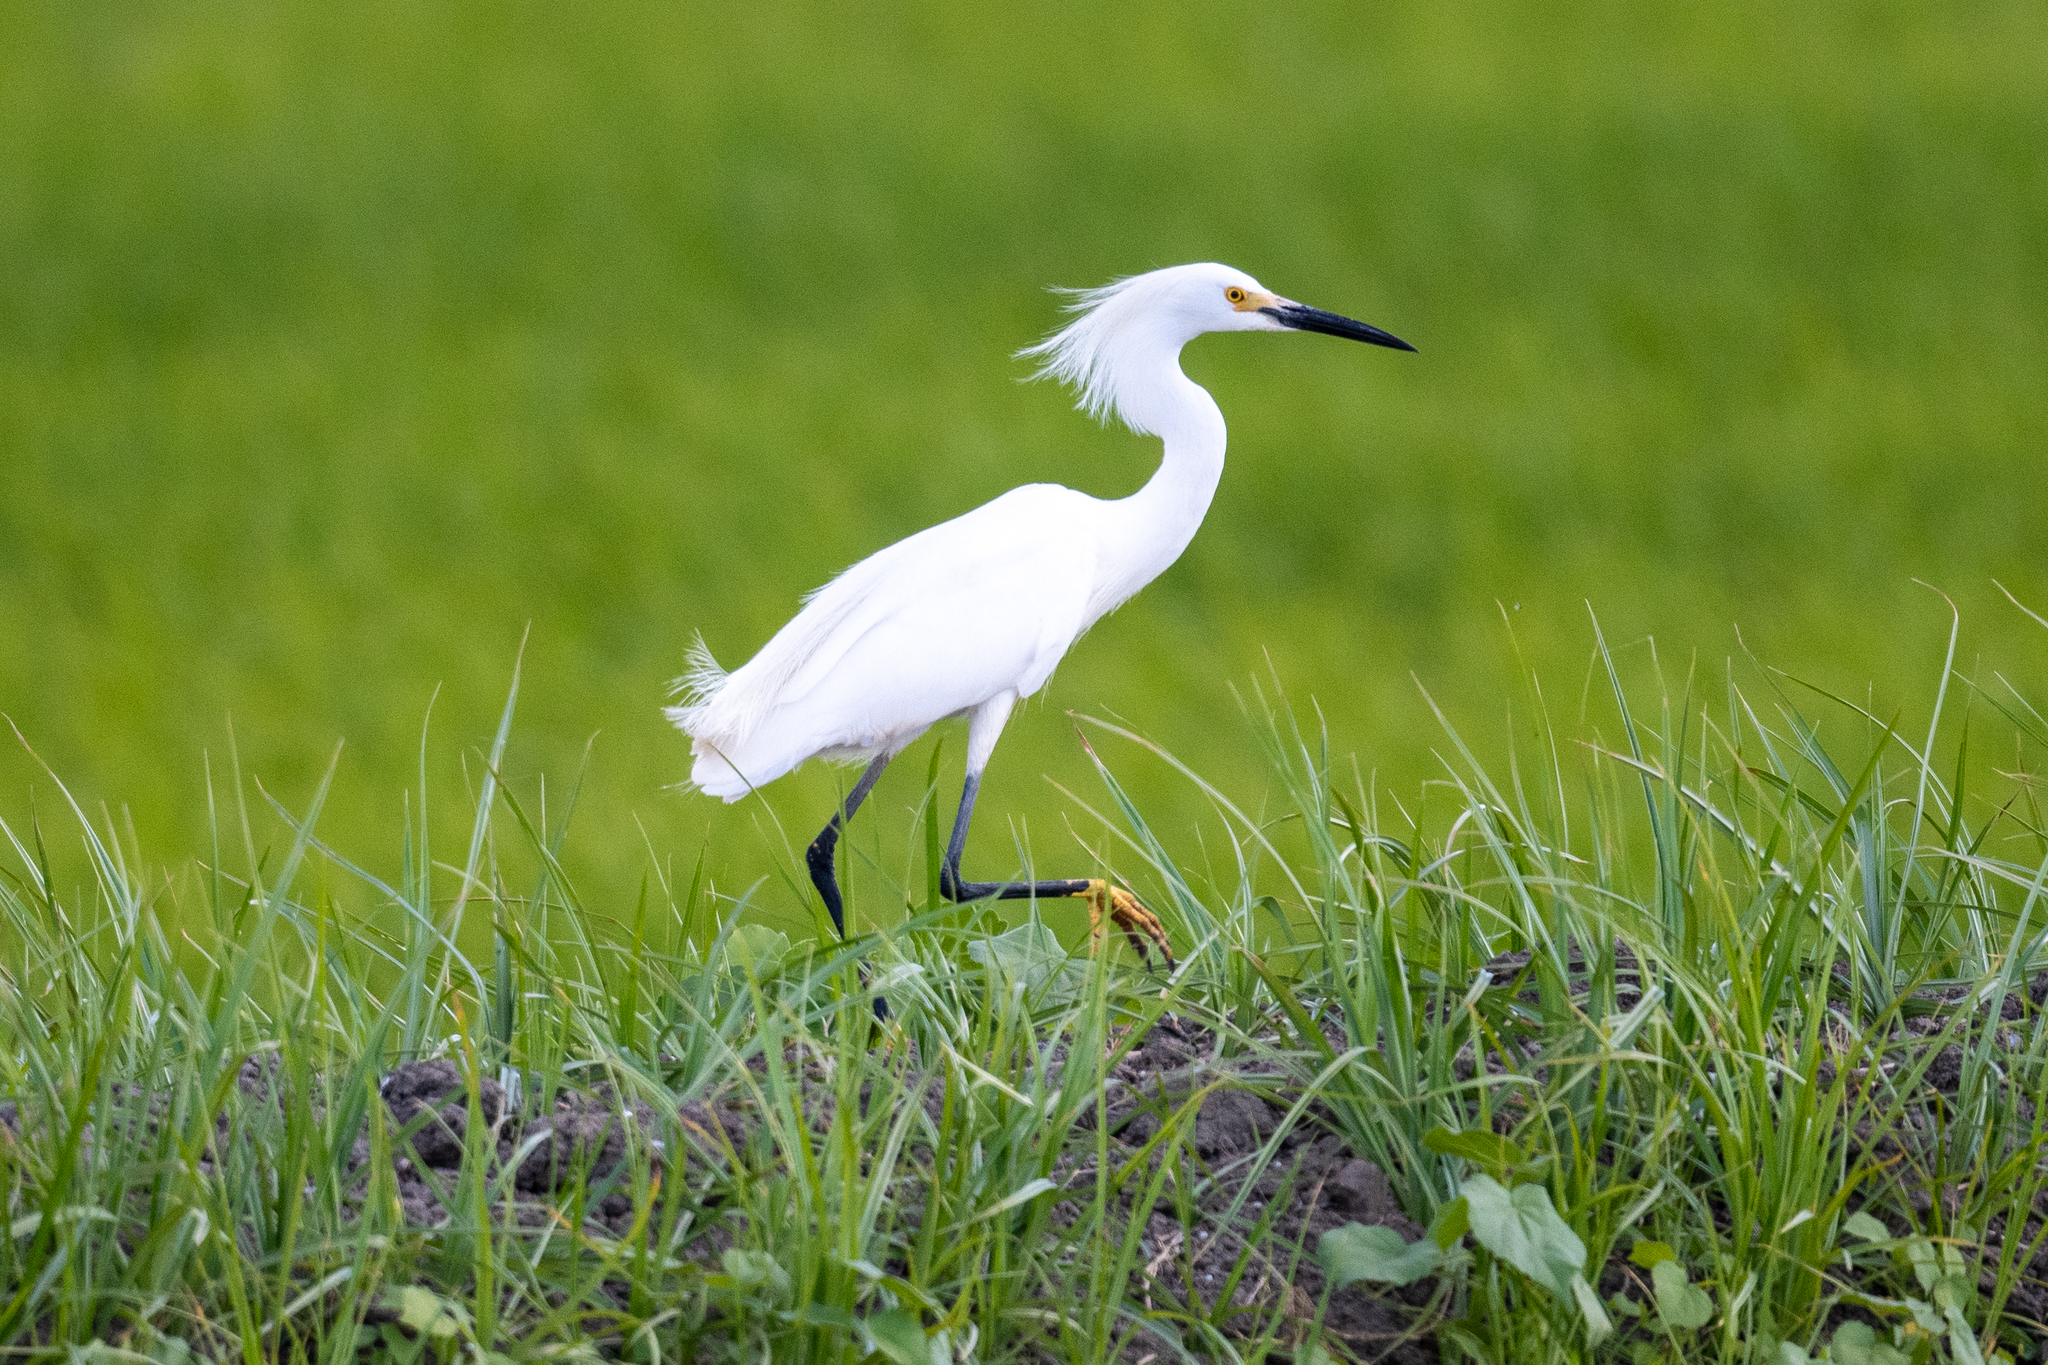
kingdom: Animalia
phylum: Chordata
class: Aves
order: Pelecaniformes
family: Ardeidae
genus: Egretta
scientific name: Egretta thula
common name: Snowy egret
